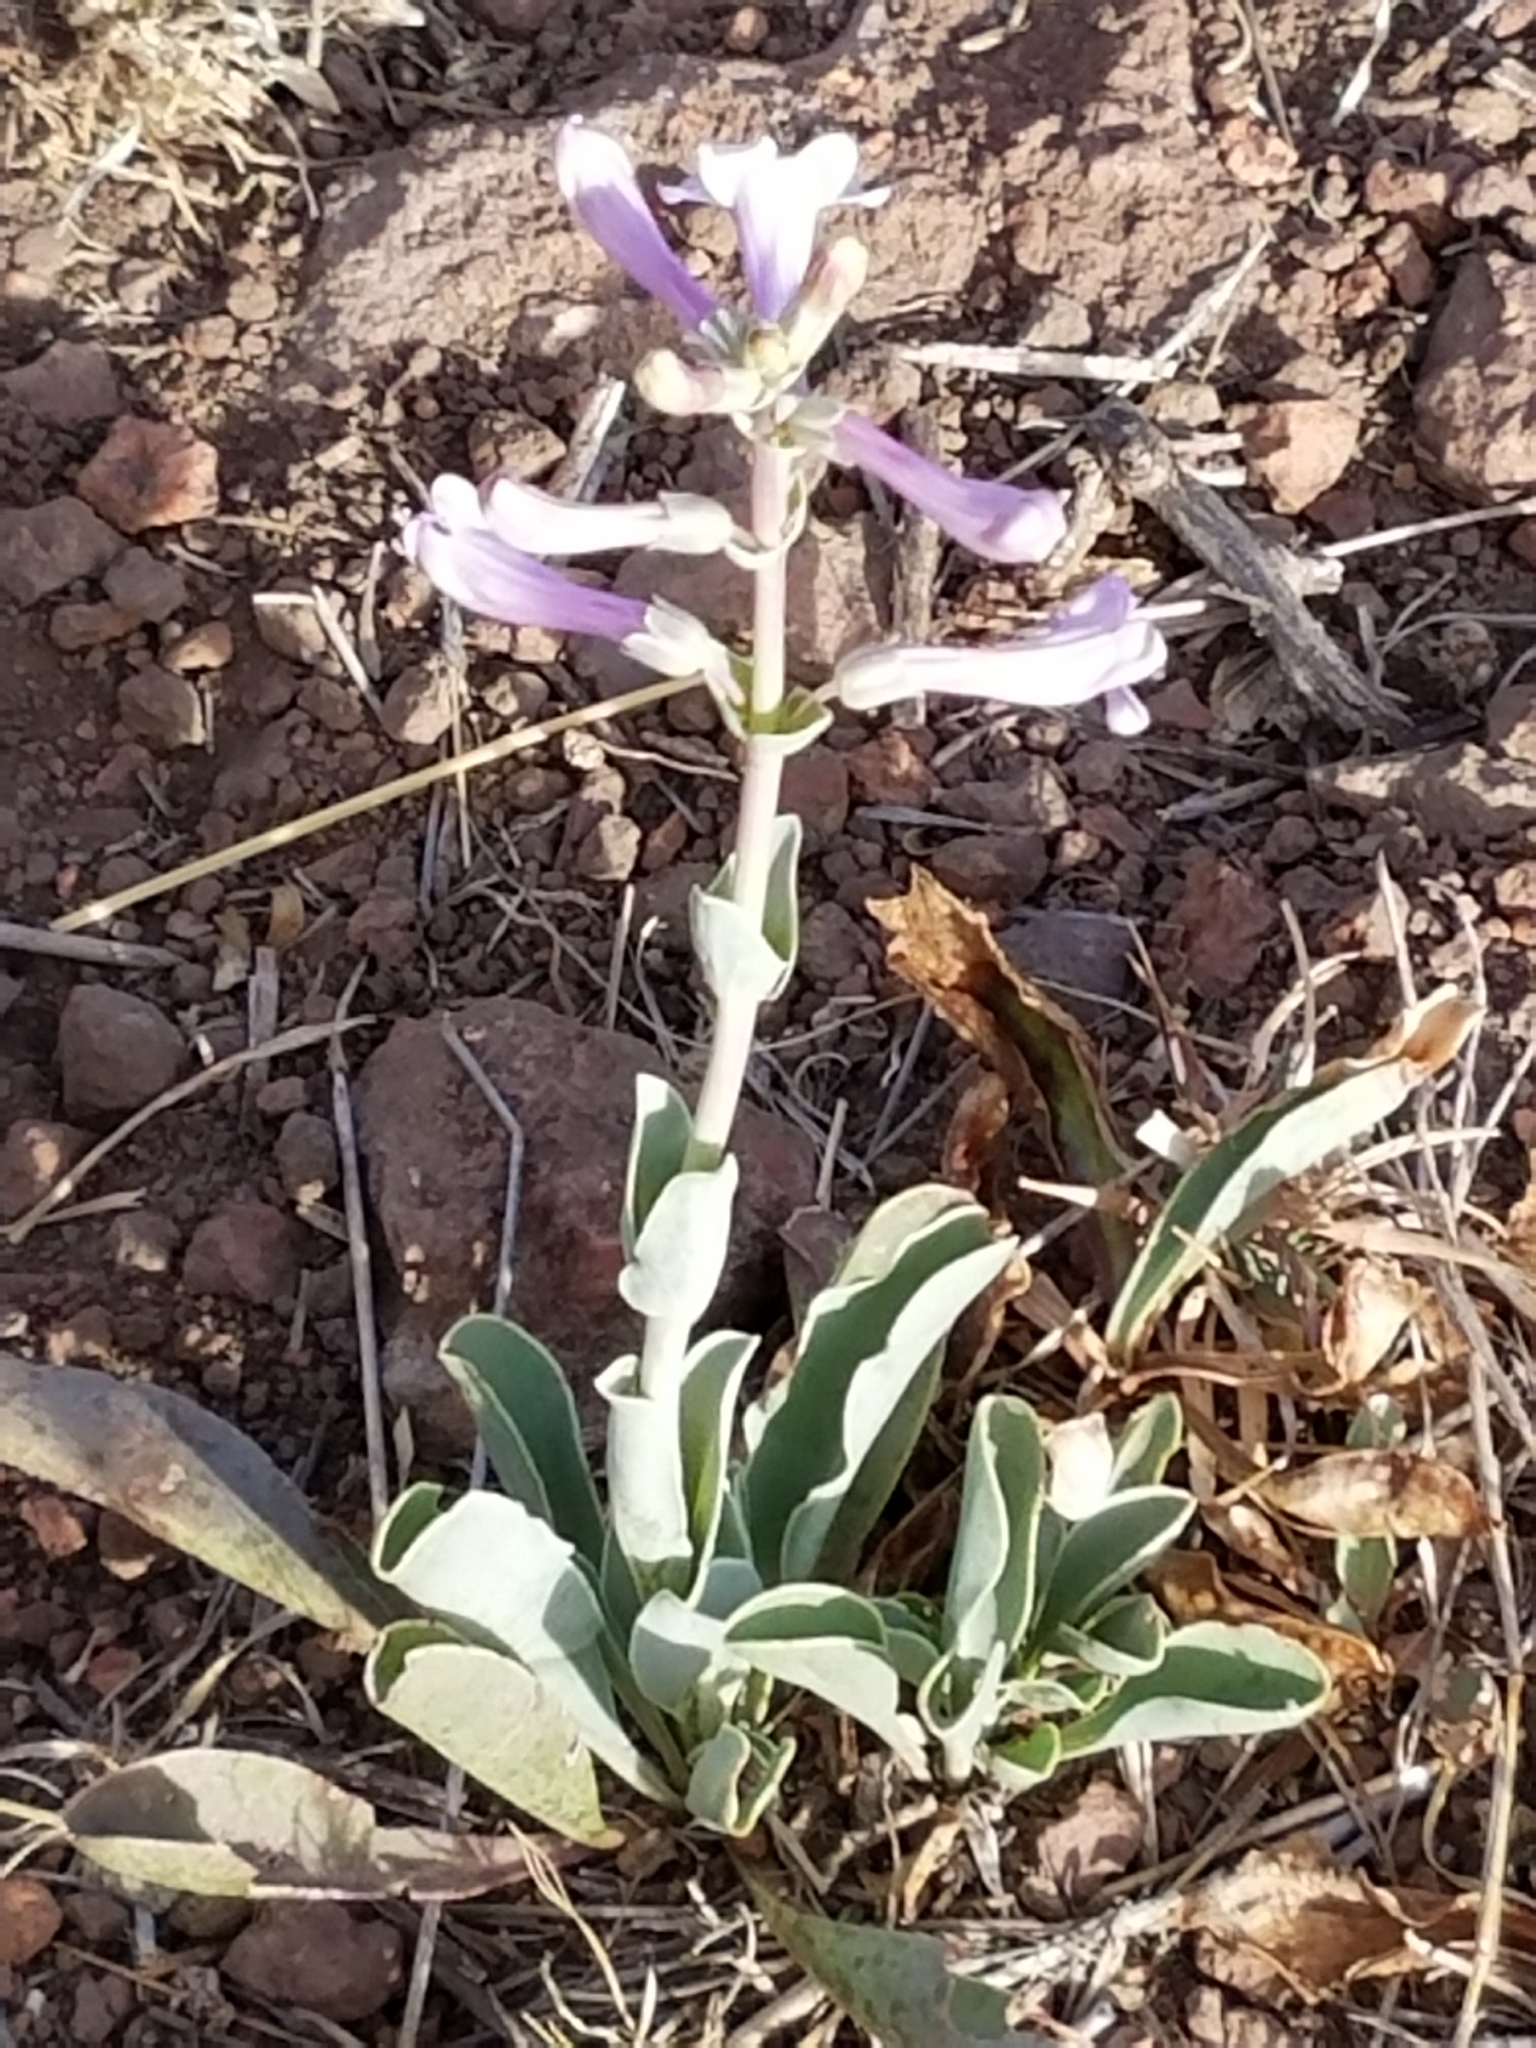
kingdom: Plantae
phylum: Tracheophyta
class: Magnoliopsida
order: Lamiales
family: Plantaginaceae
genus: Penstemon
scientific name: Penstemon fendleri
